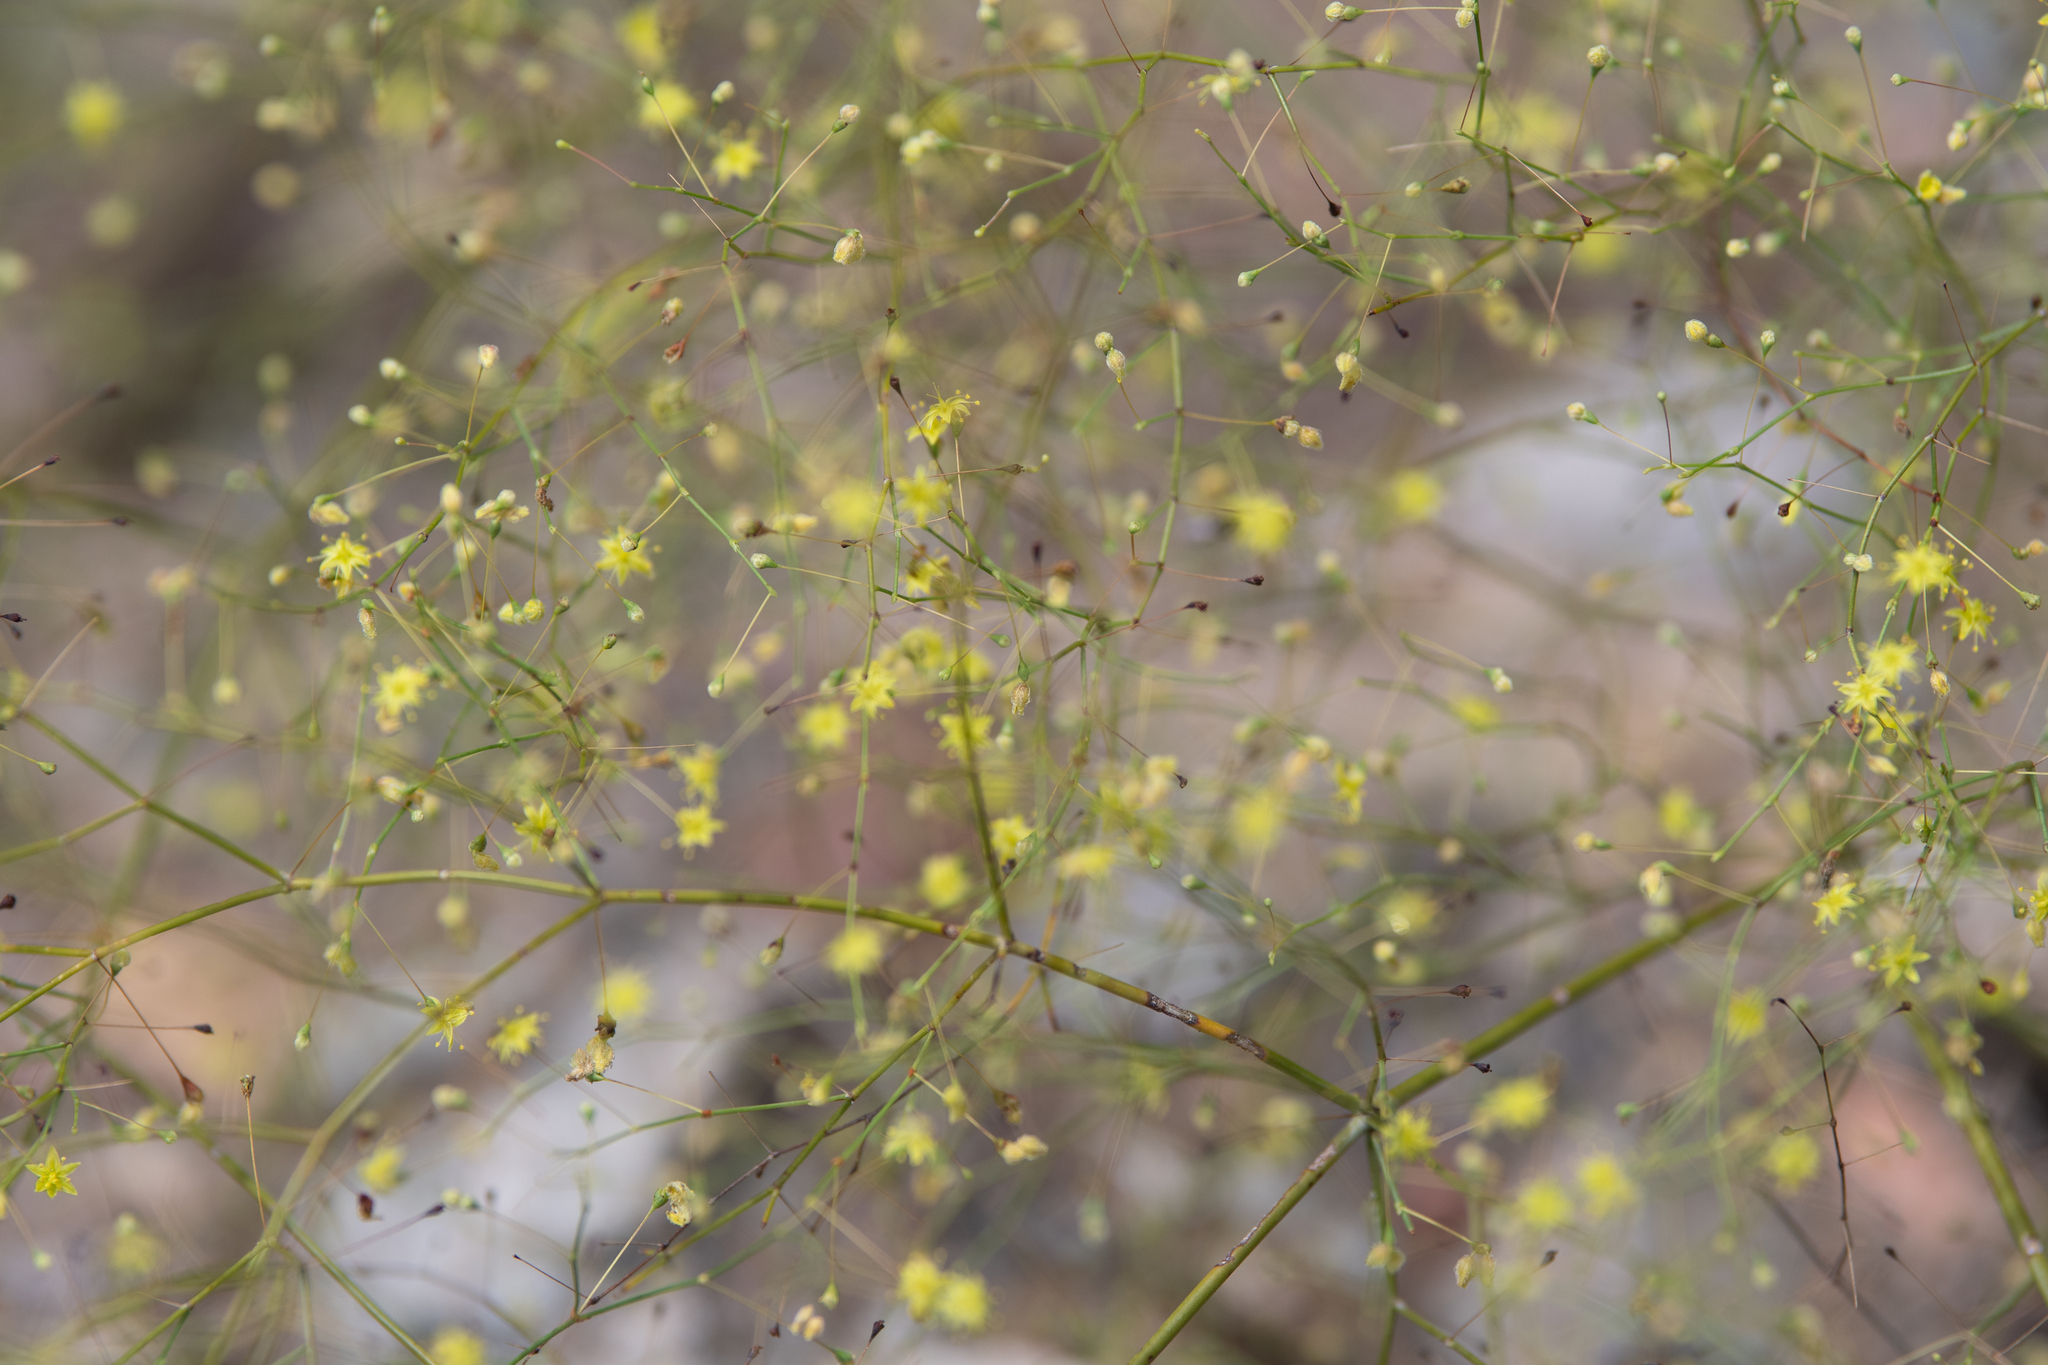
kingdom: Plantae
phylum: Tracheophyta
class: Magnoliopsida
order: Caryophyllales
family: Polygonaceae
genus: Eriogonum
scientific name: Eriogonum trichopes
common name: Little desert trumpet
